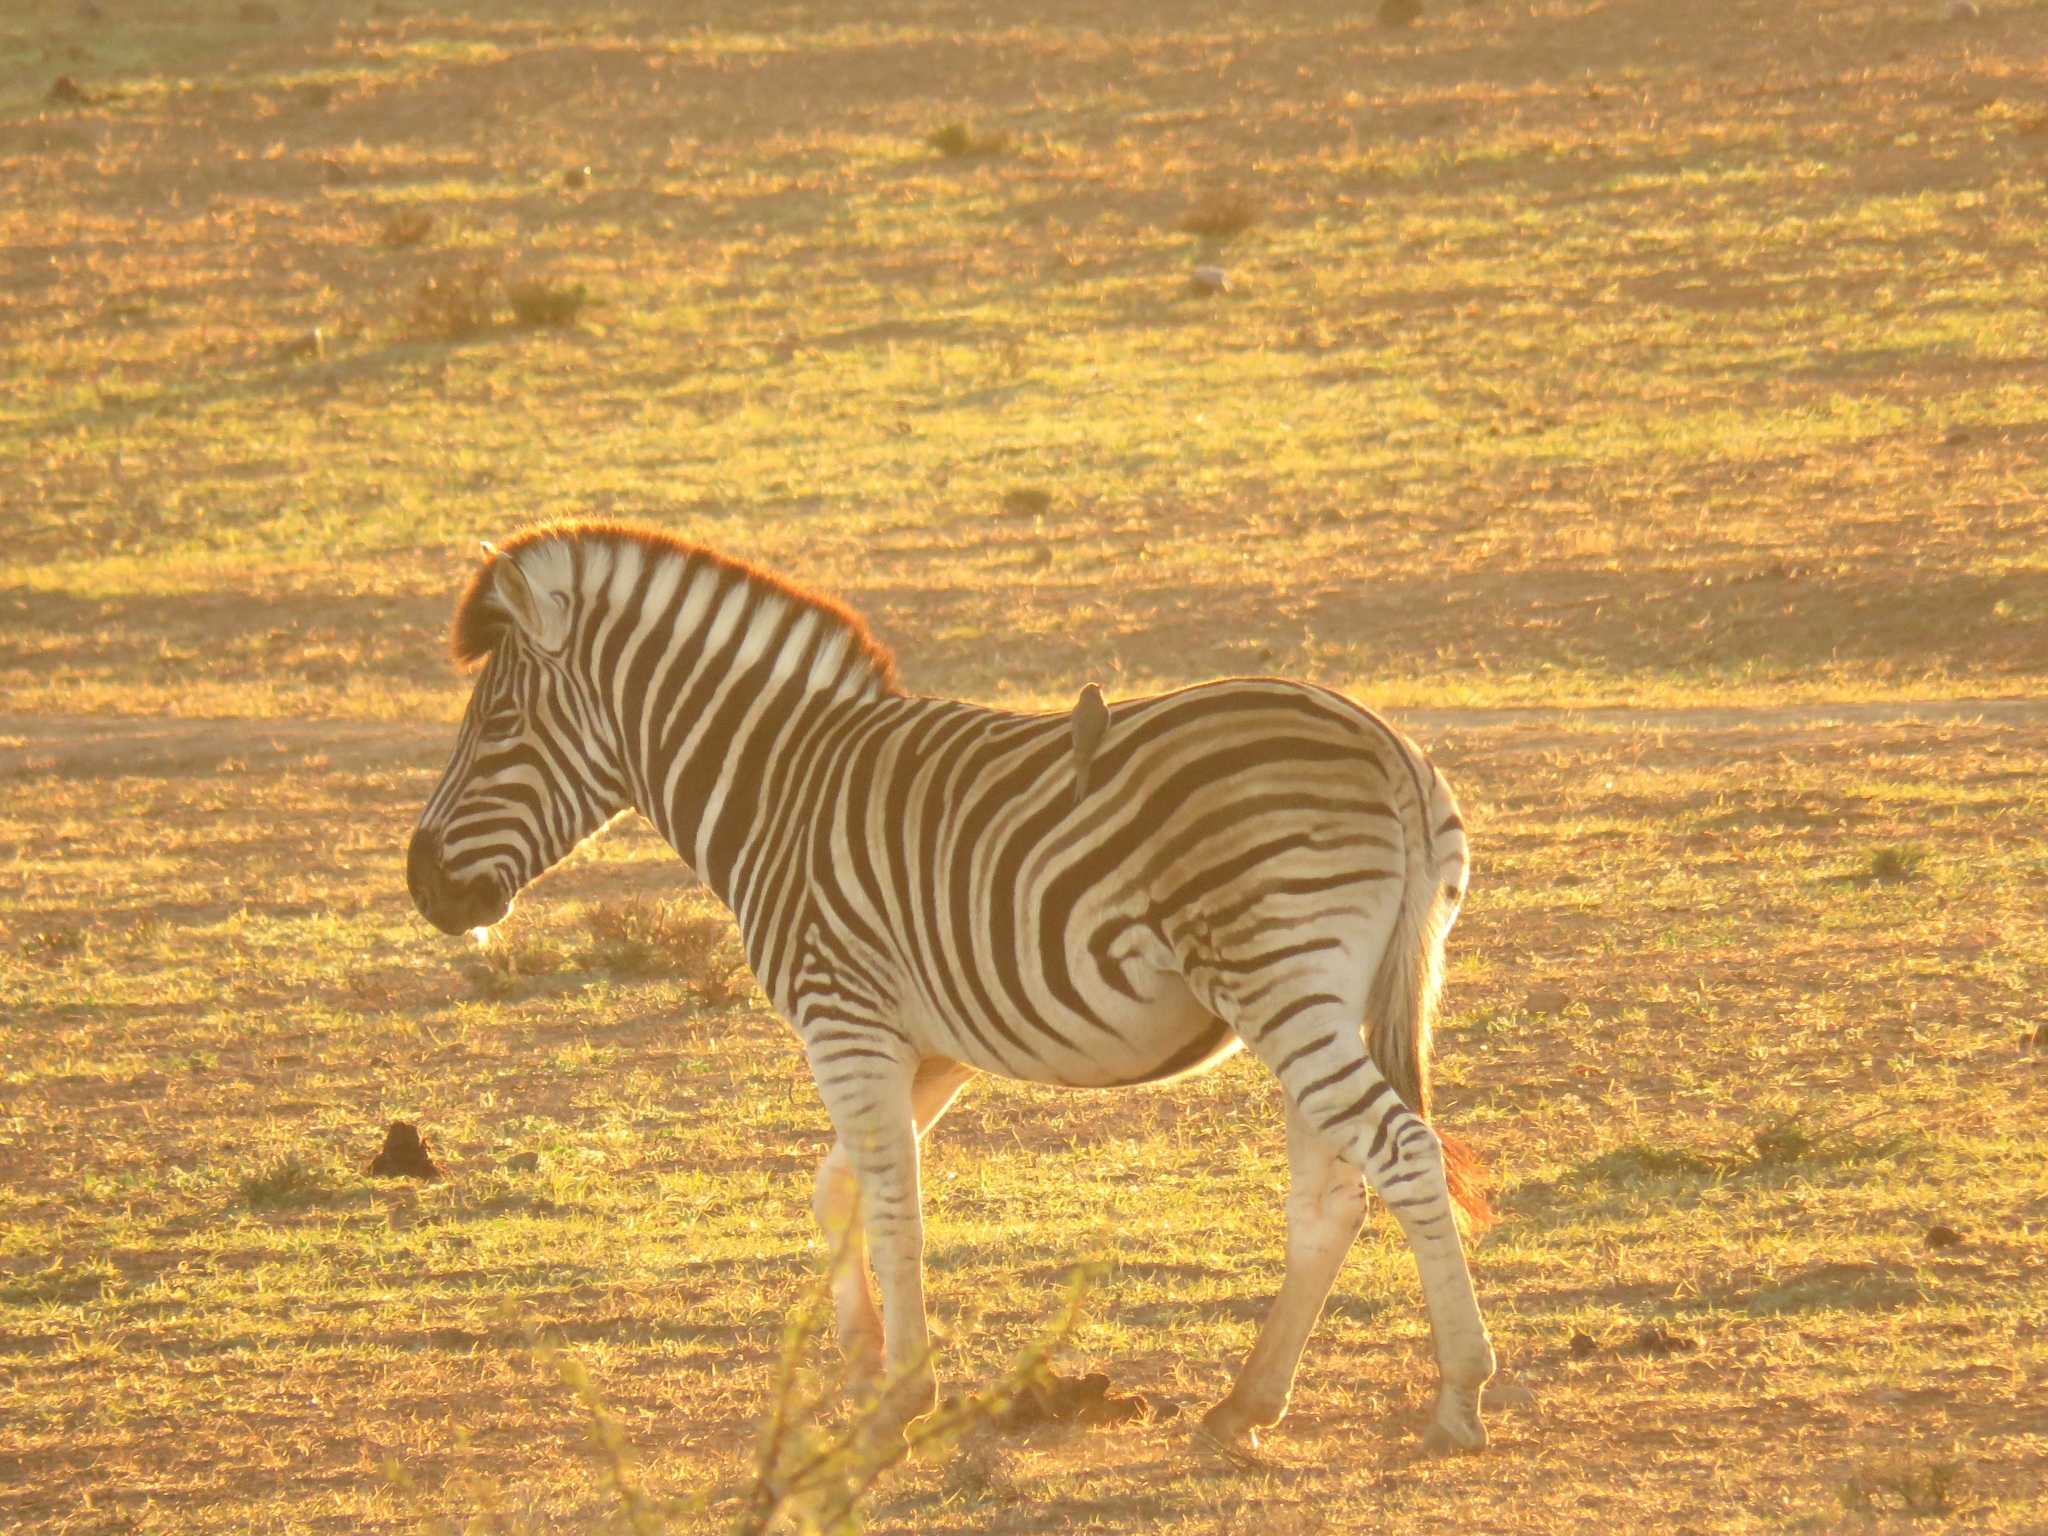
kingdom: Animalia
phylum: Chordata
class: Aves
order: Passeriformes
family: Buphagidae
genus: Buphagus
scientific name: Buphagus erythrorhynchus
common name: Red-billed oxpecker
